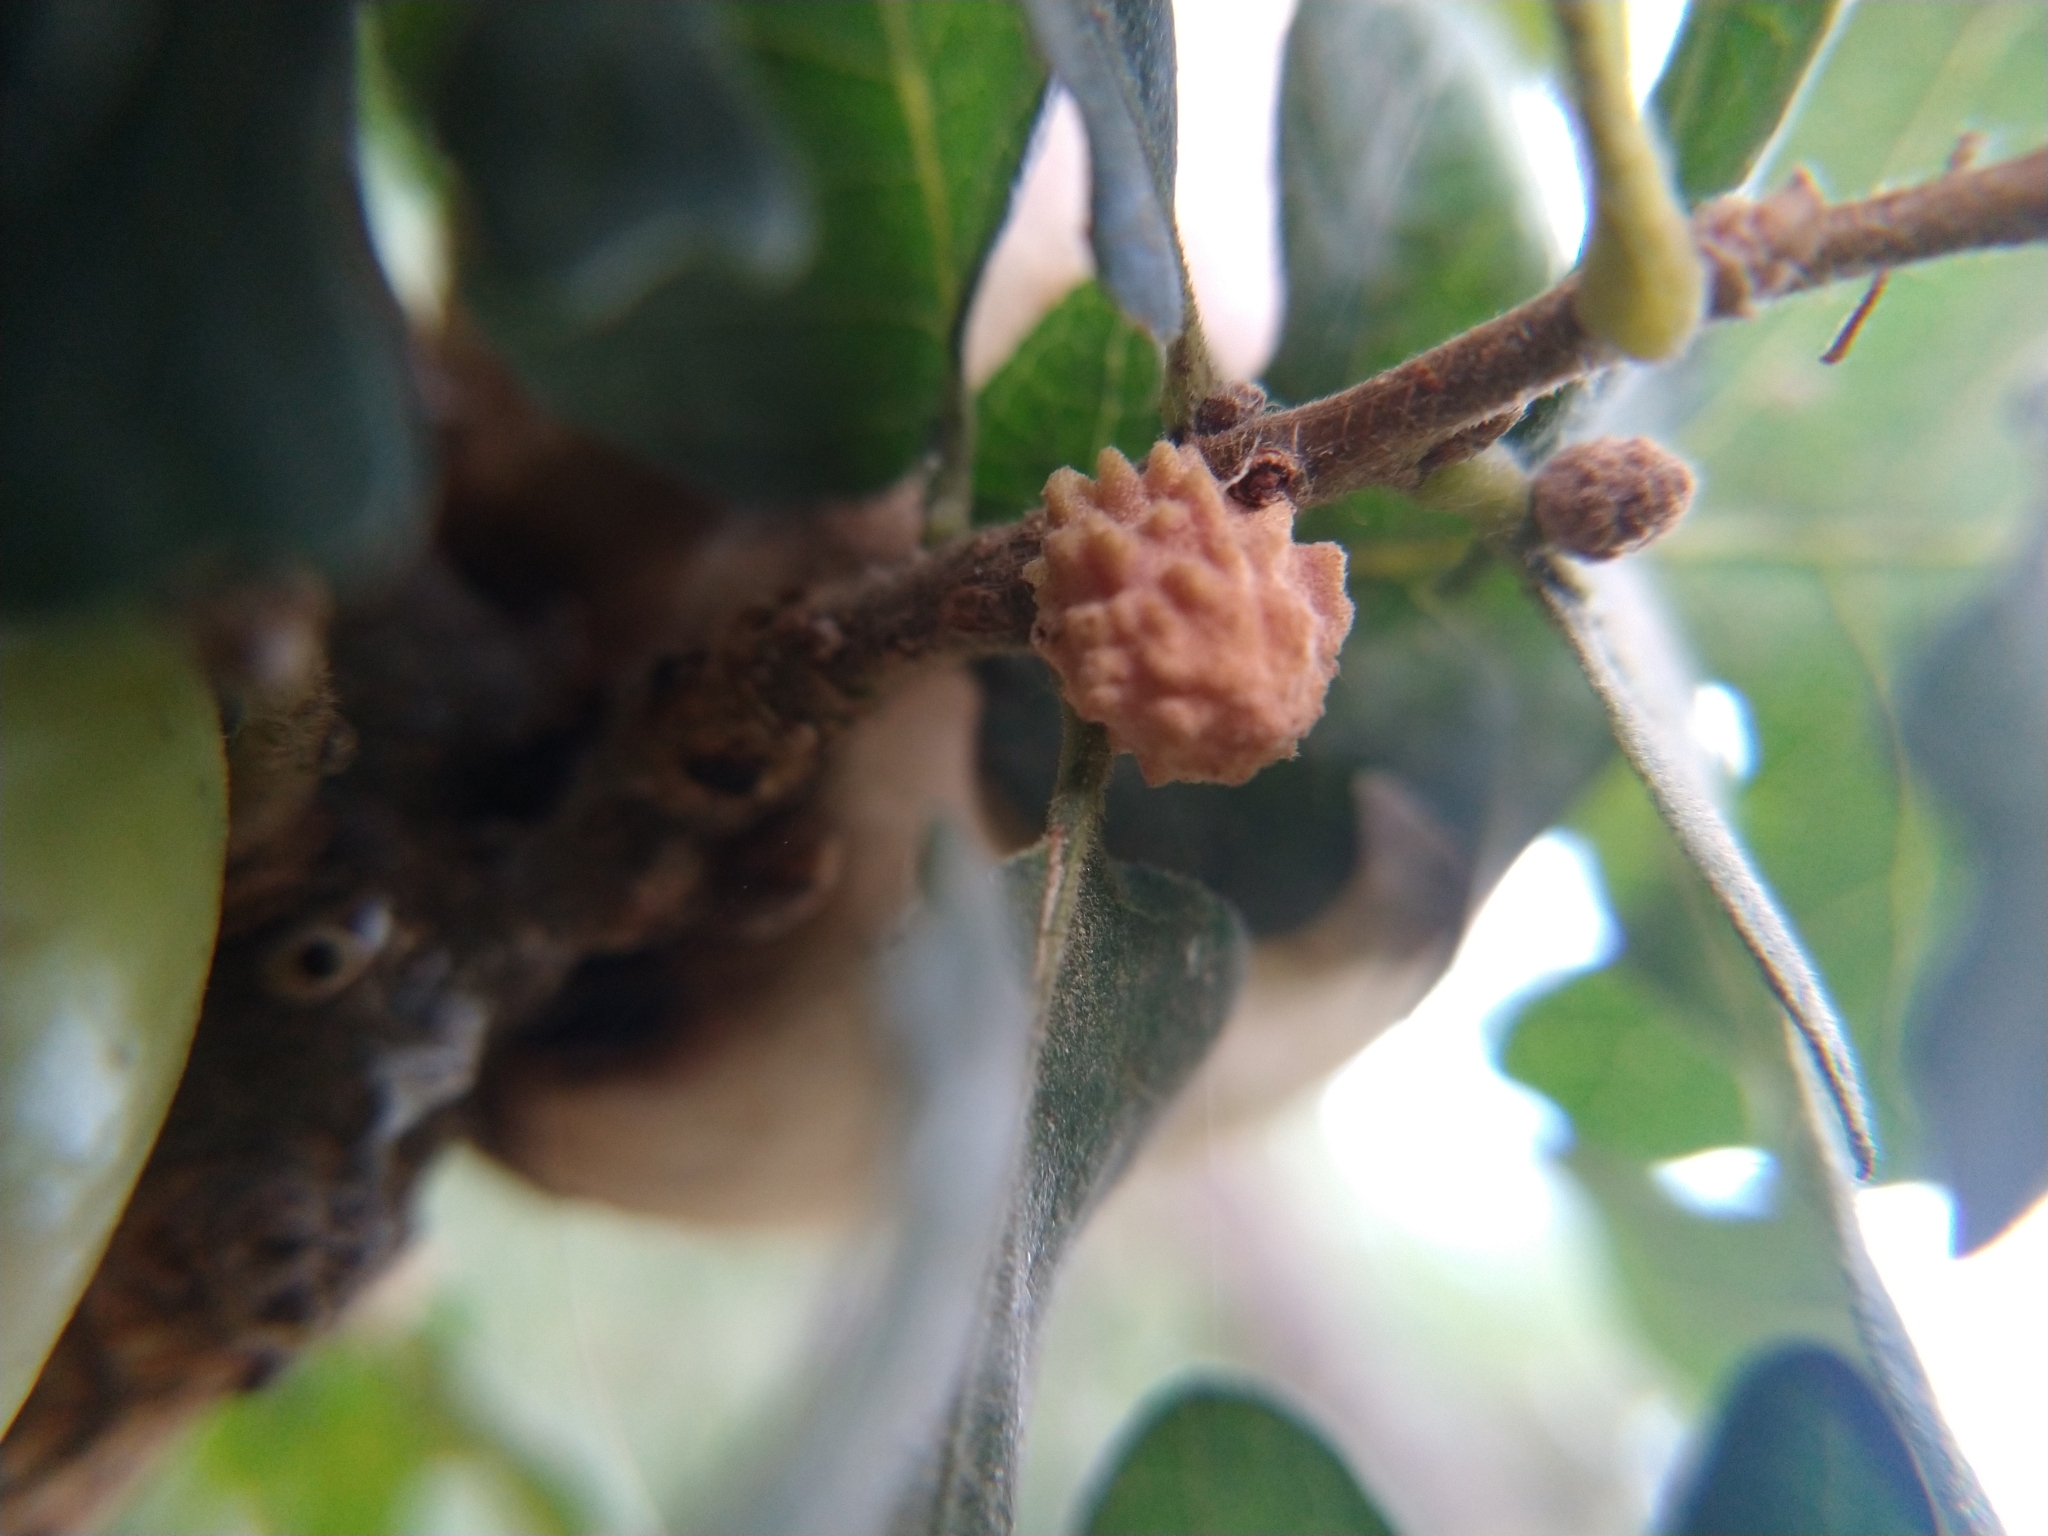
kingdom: Animalia
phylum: Arthropoda
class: Insecta
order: Hymenoptera
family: Cynipidae
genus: Cynips
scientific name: Cynips conspicua
